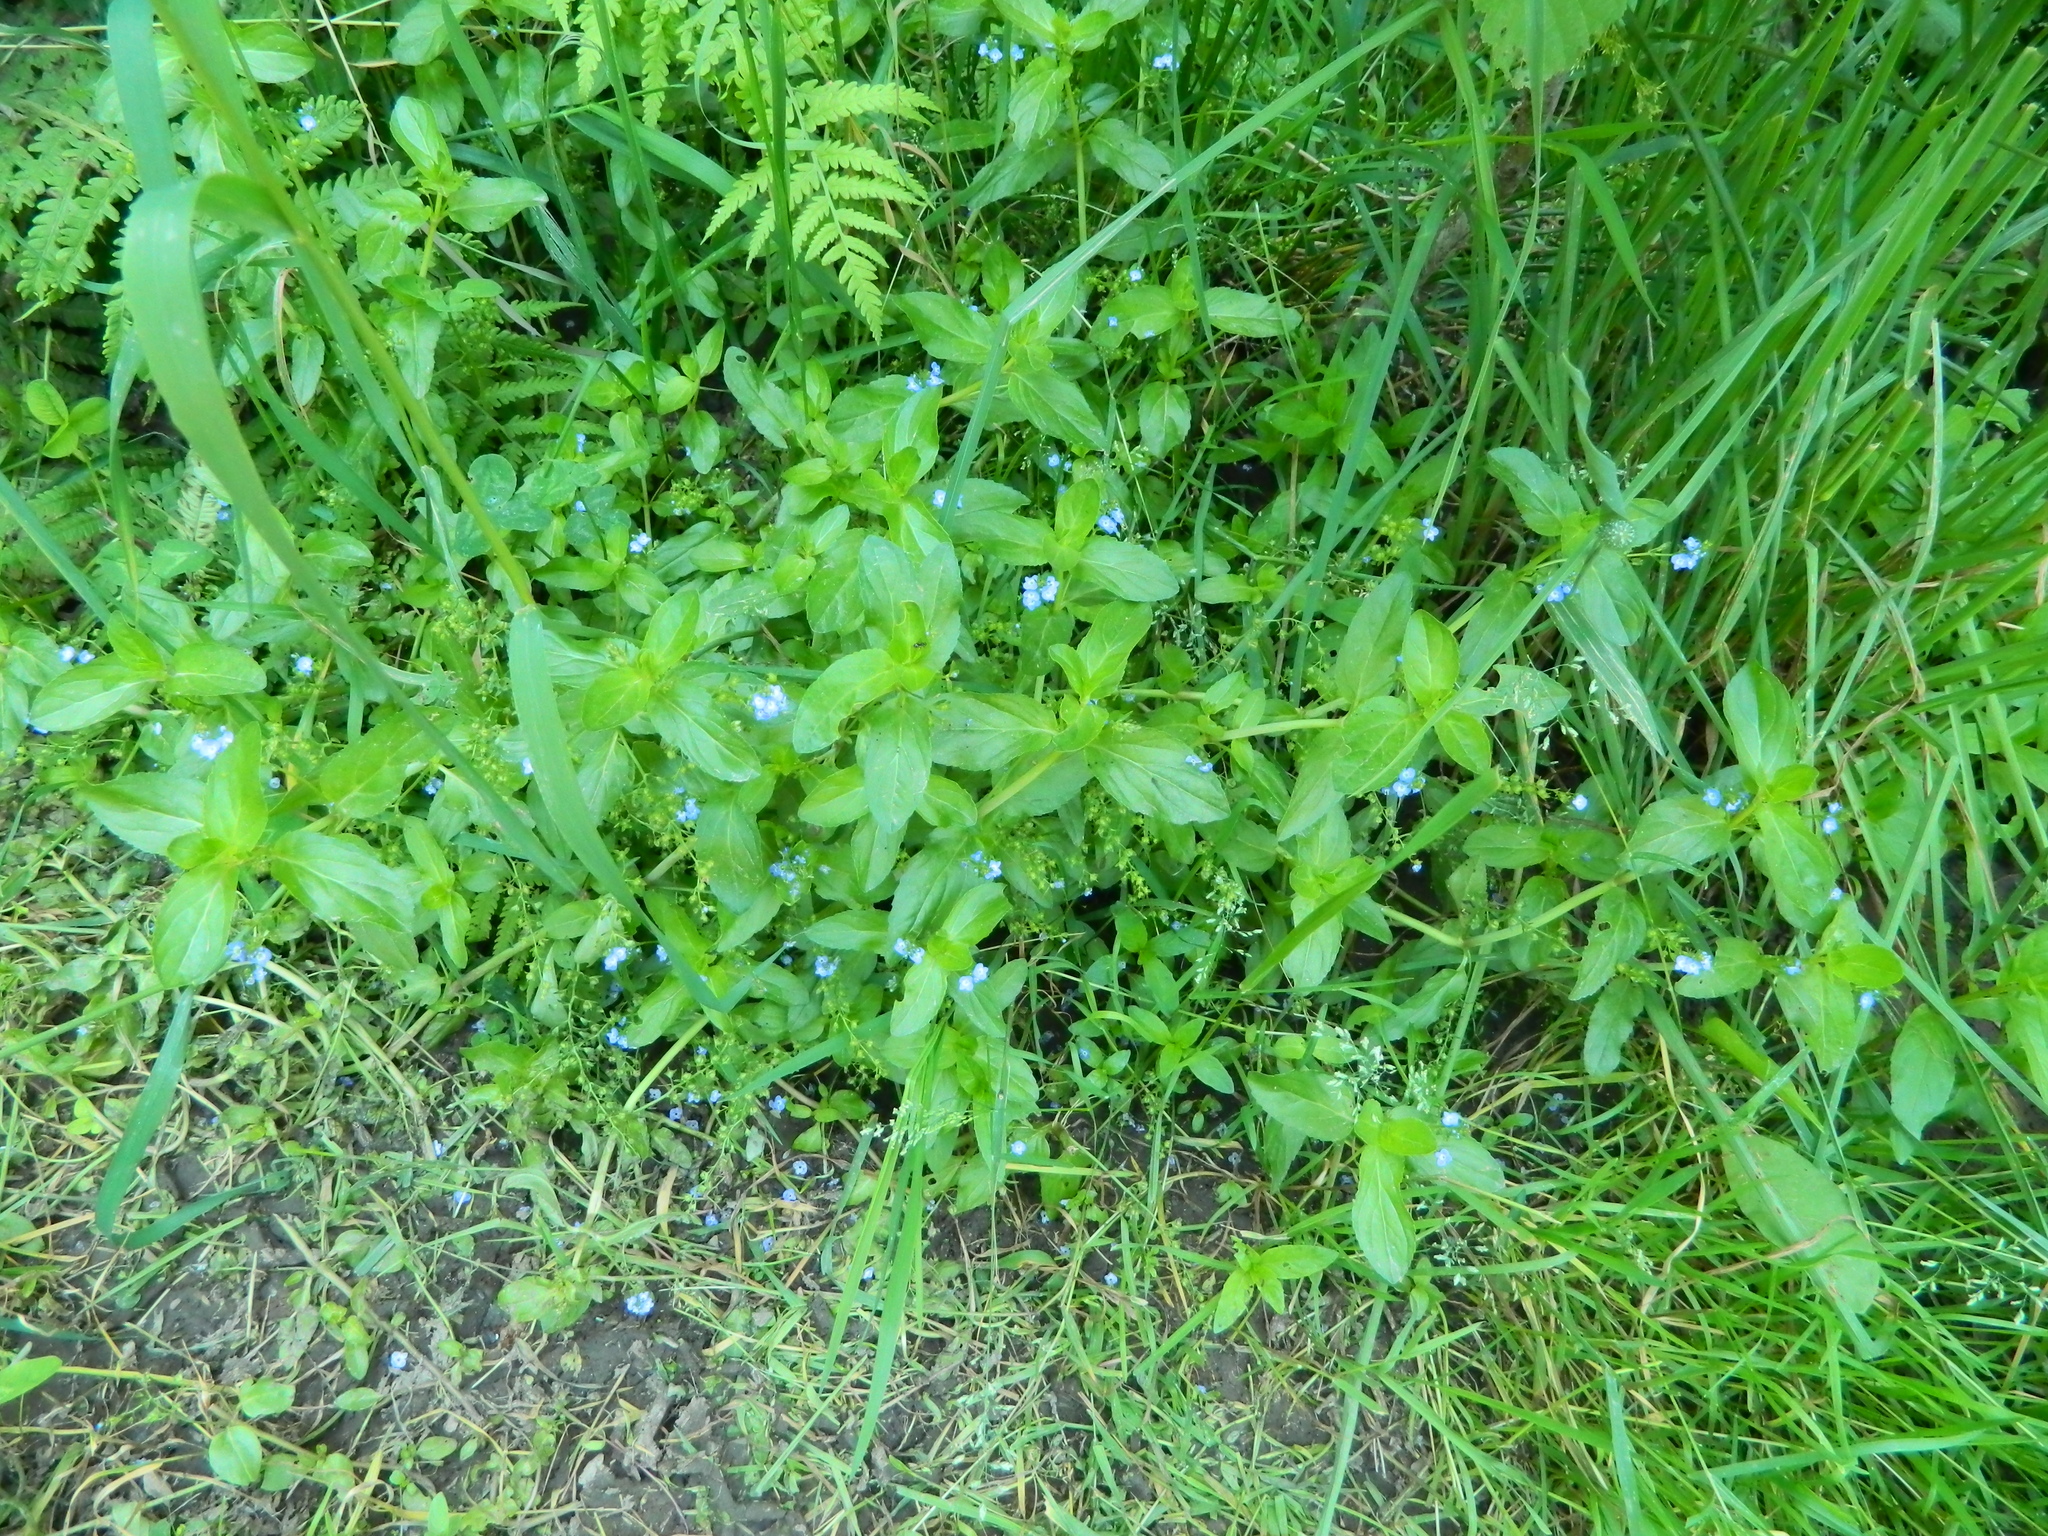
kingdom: Plantae
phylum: Tracheophyta
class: Magnoliopsida
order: Lamiales
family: Plantaginaceae
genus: Veronica
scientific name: Veronica beccabunga
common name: Brooklime
